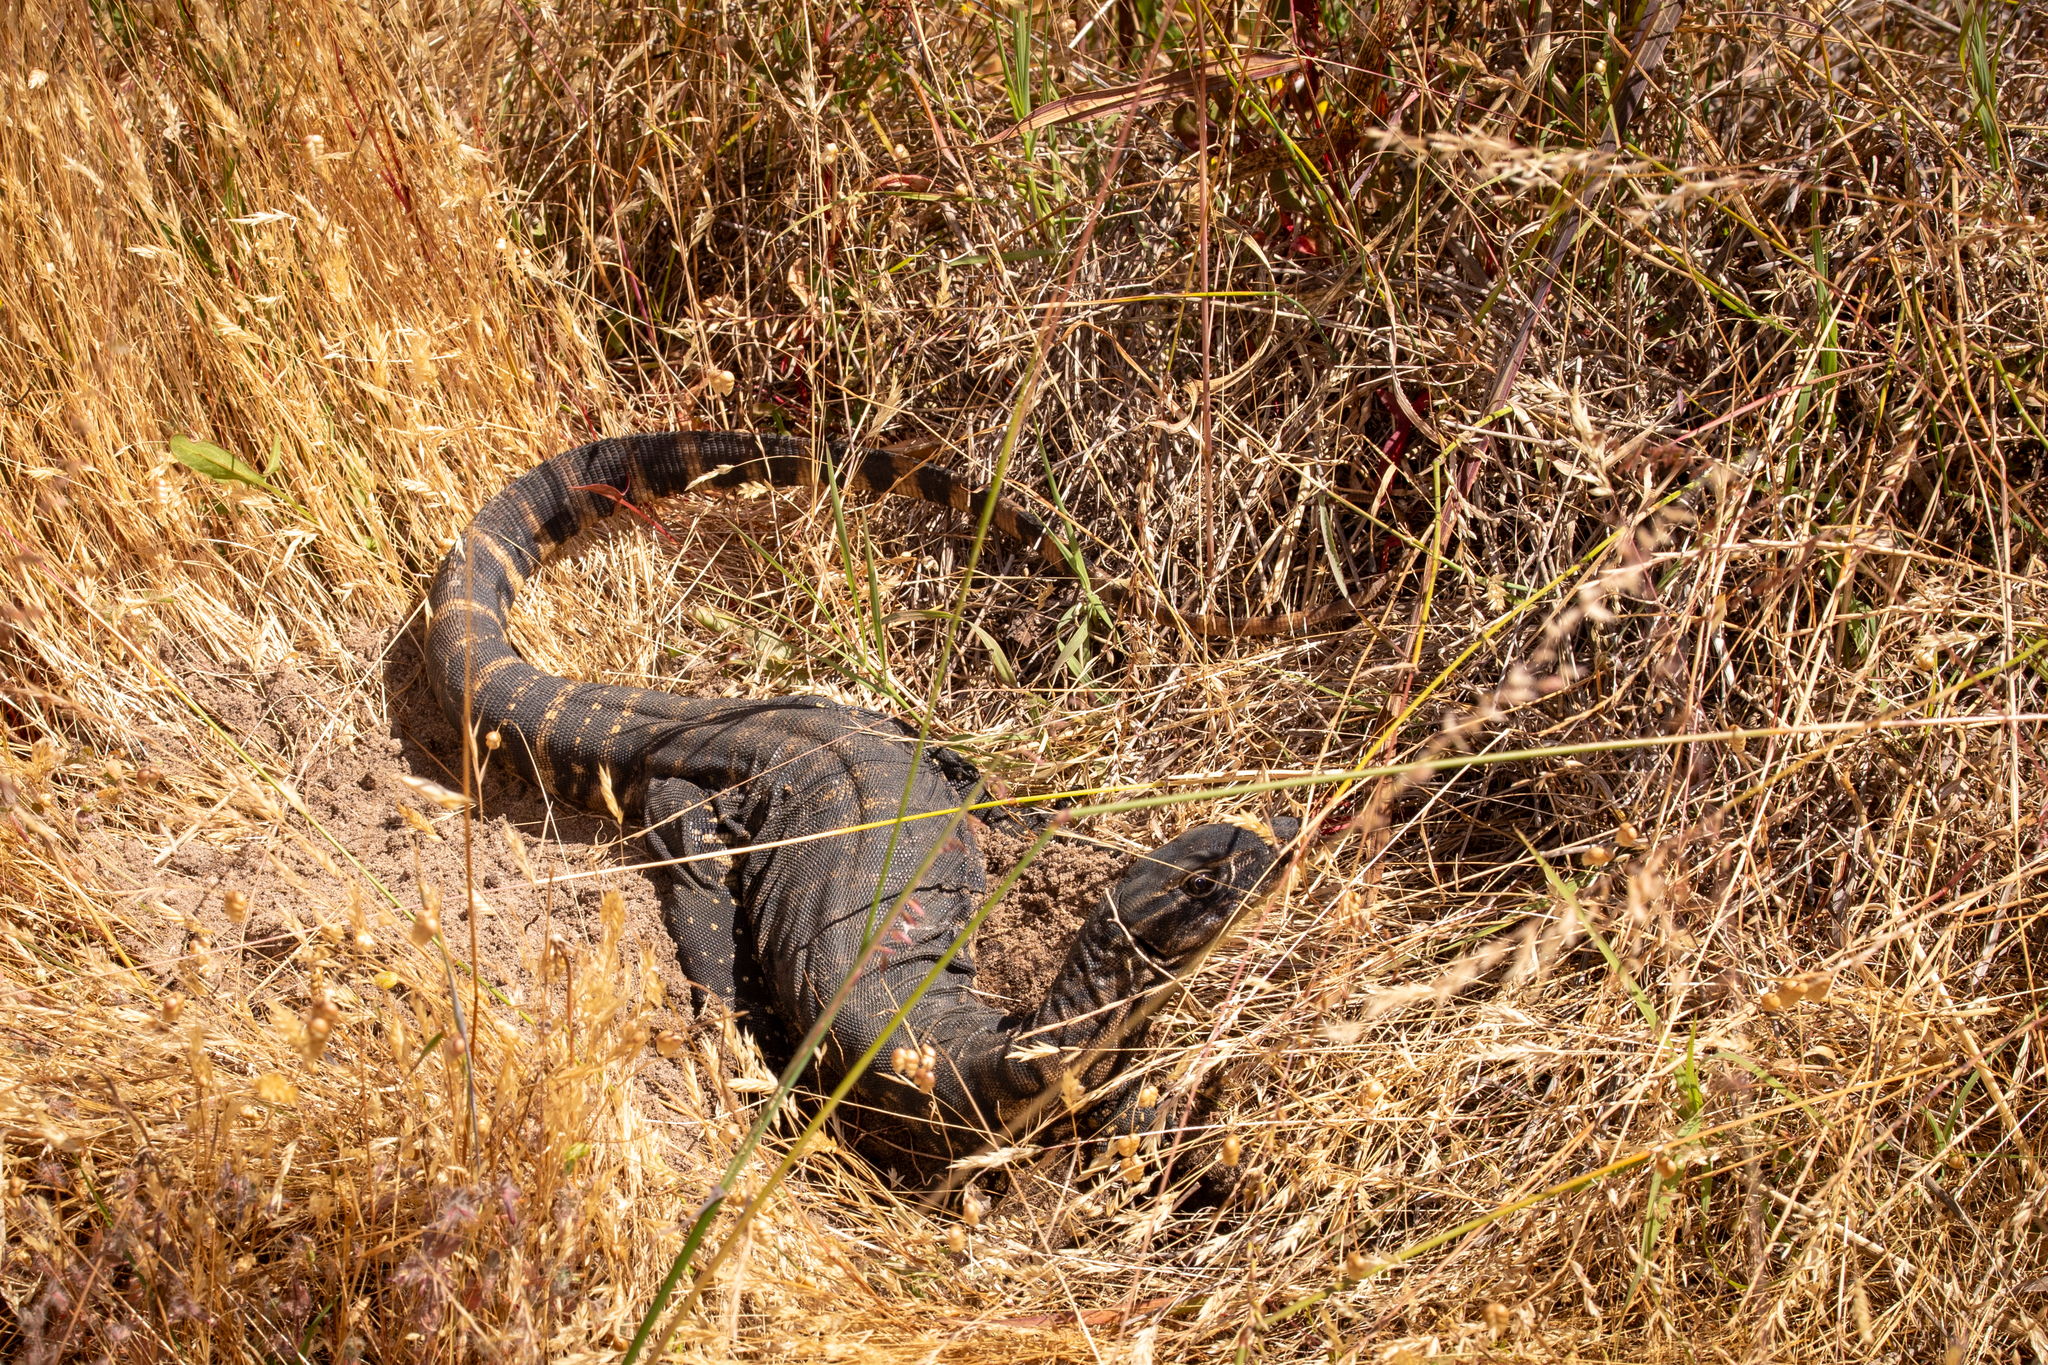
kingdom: Animalia
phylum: Chordata
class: Squamata
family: Varanidae
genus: Varanus
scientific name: Varanus rosenbergi
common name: Heath monitor
